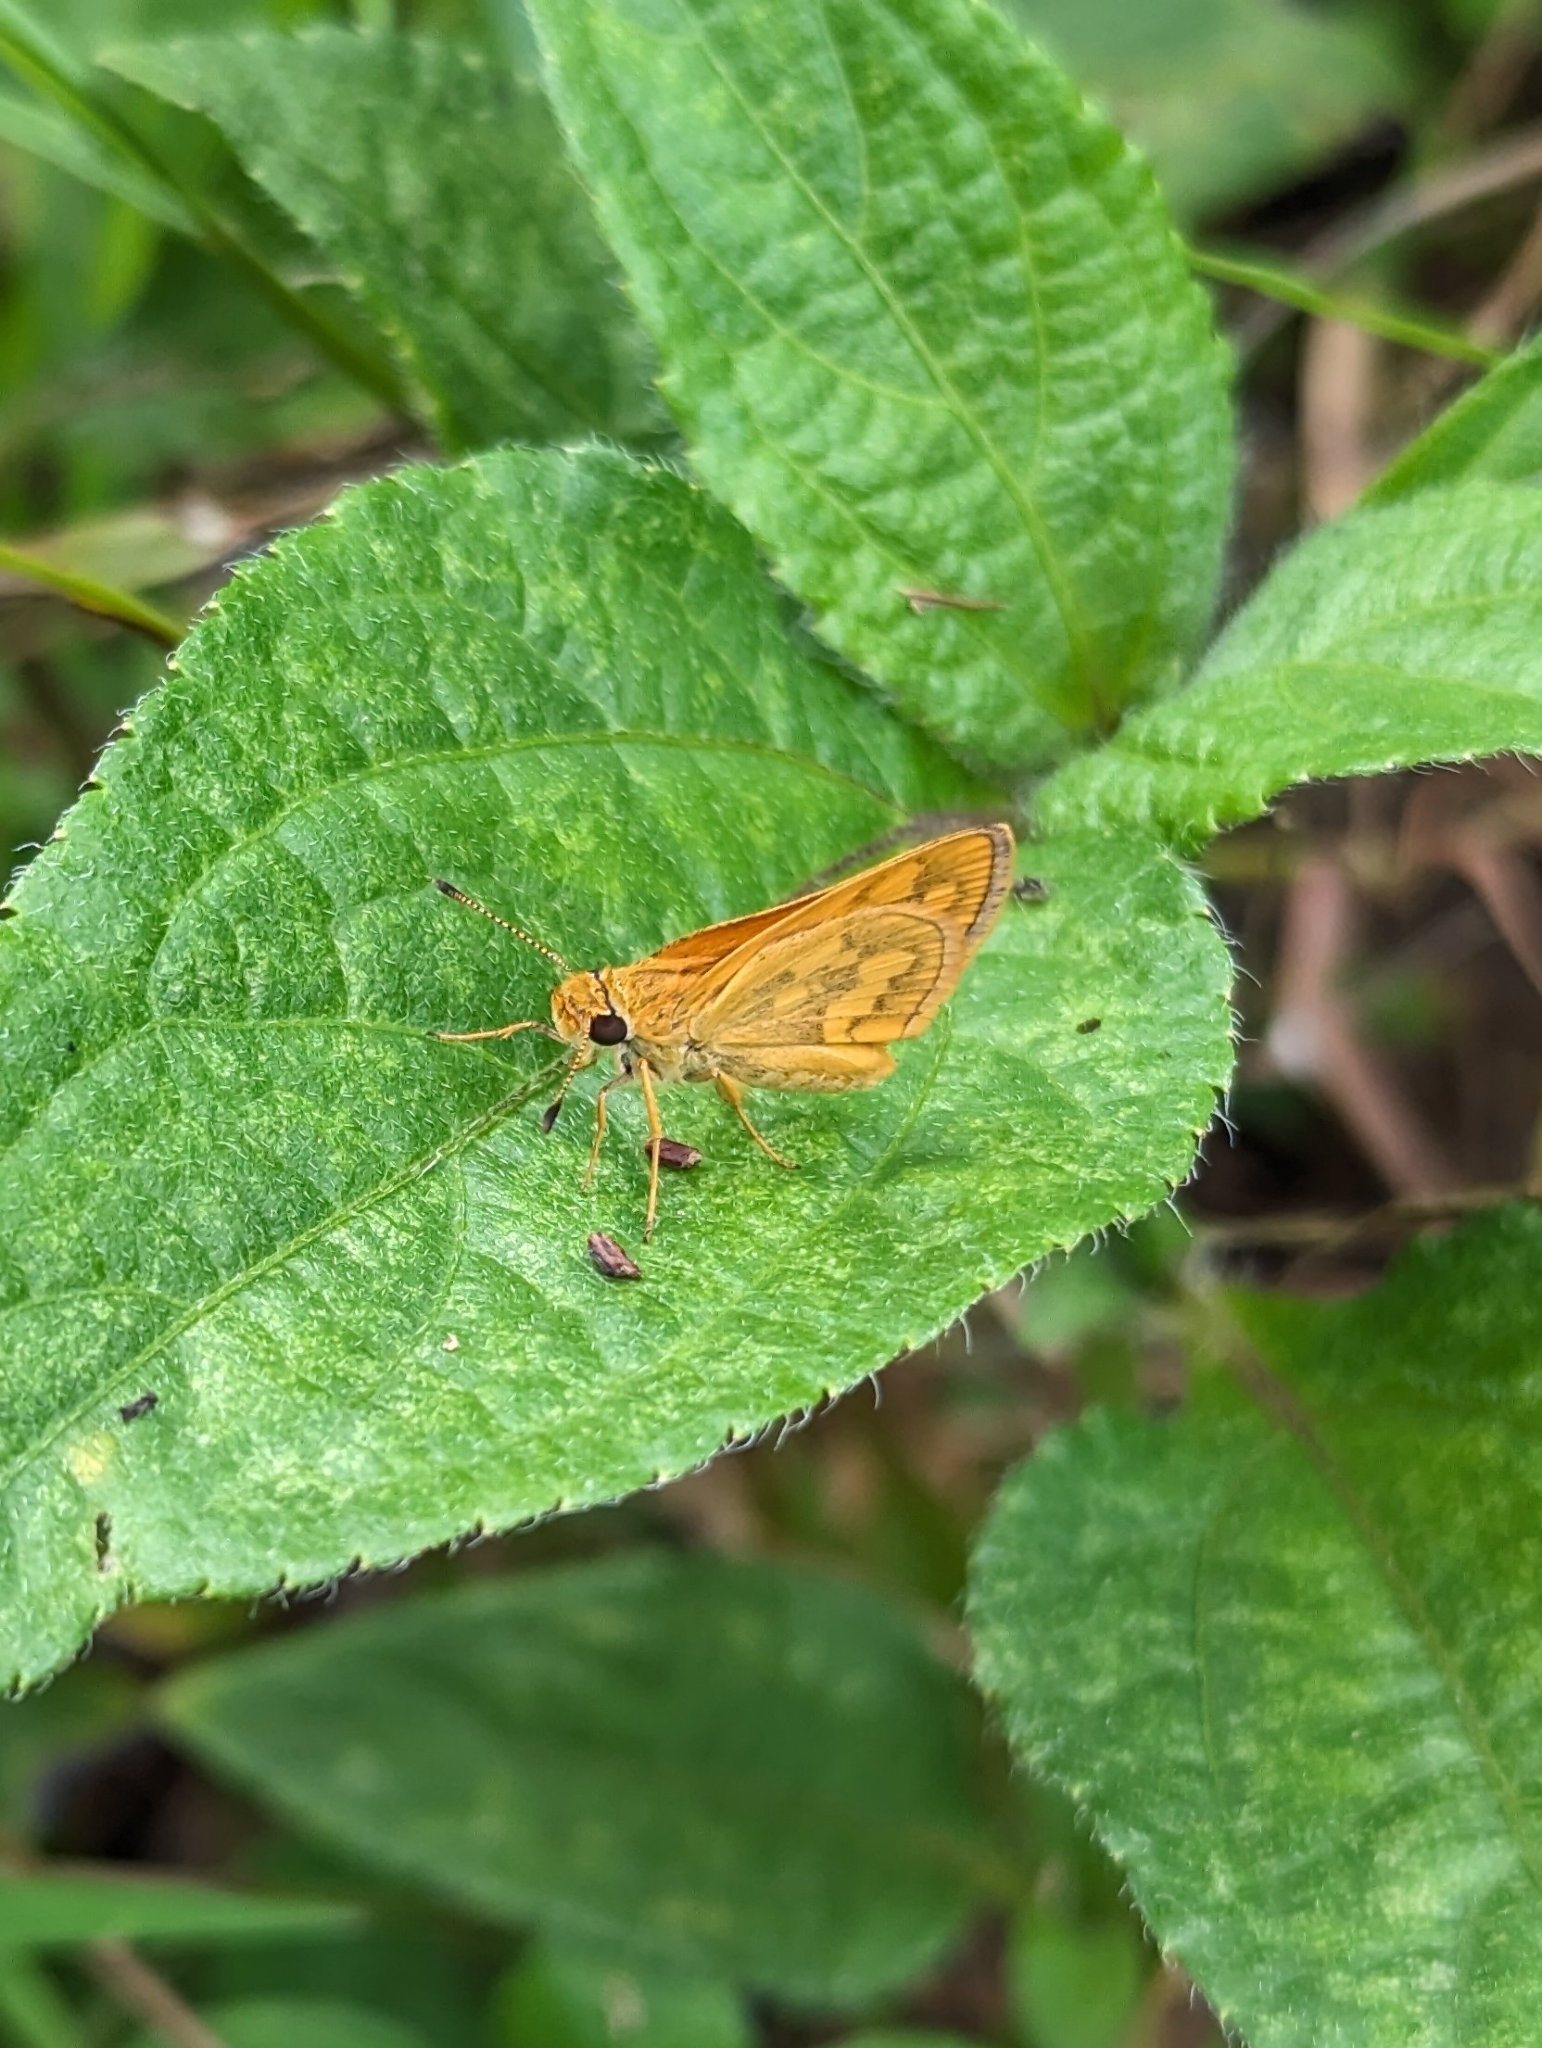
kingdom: Animalia
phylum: Arthropoda
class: Insecta
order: Lepidoptera
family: Hesperiidae
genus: Taractrocera
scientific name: Taractrocera
